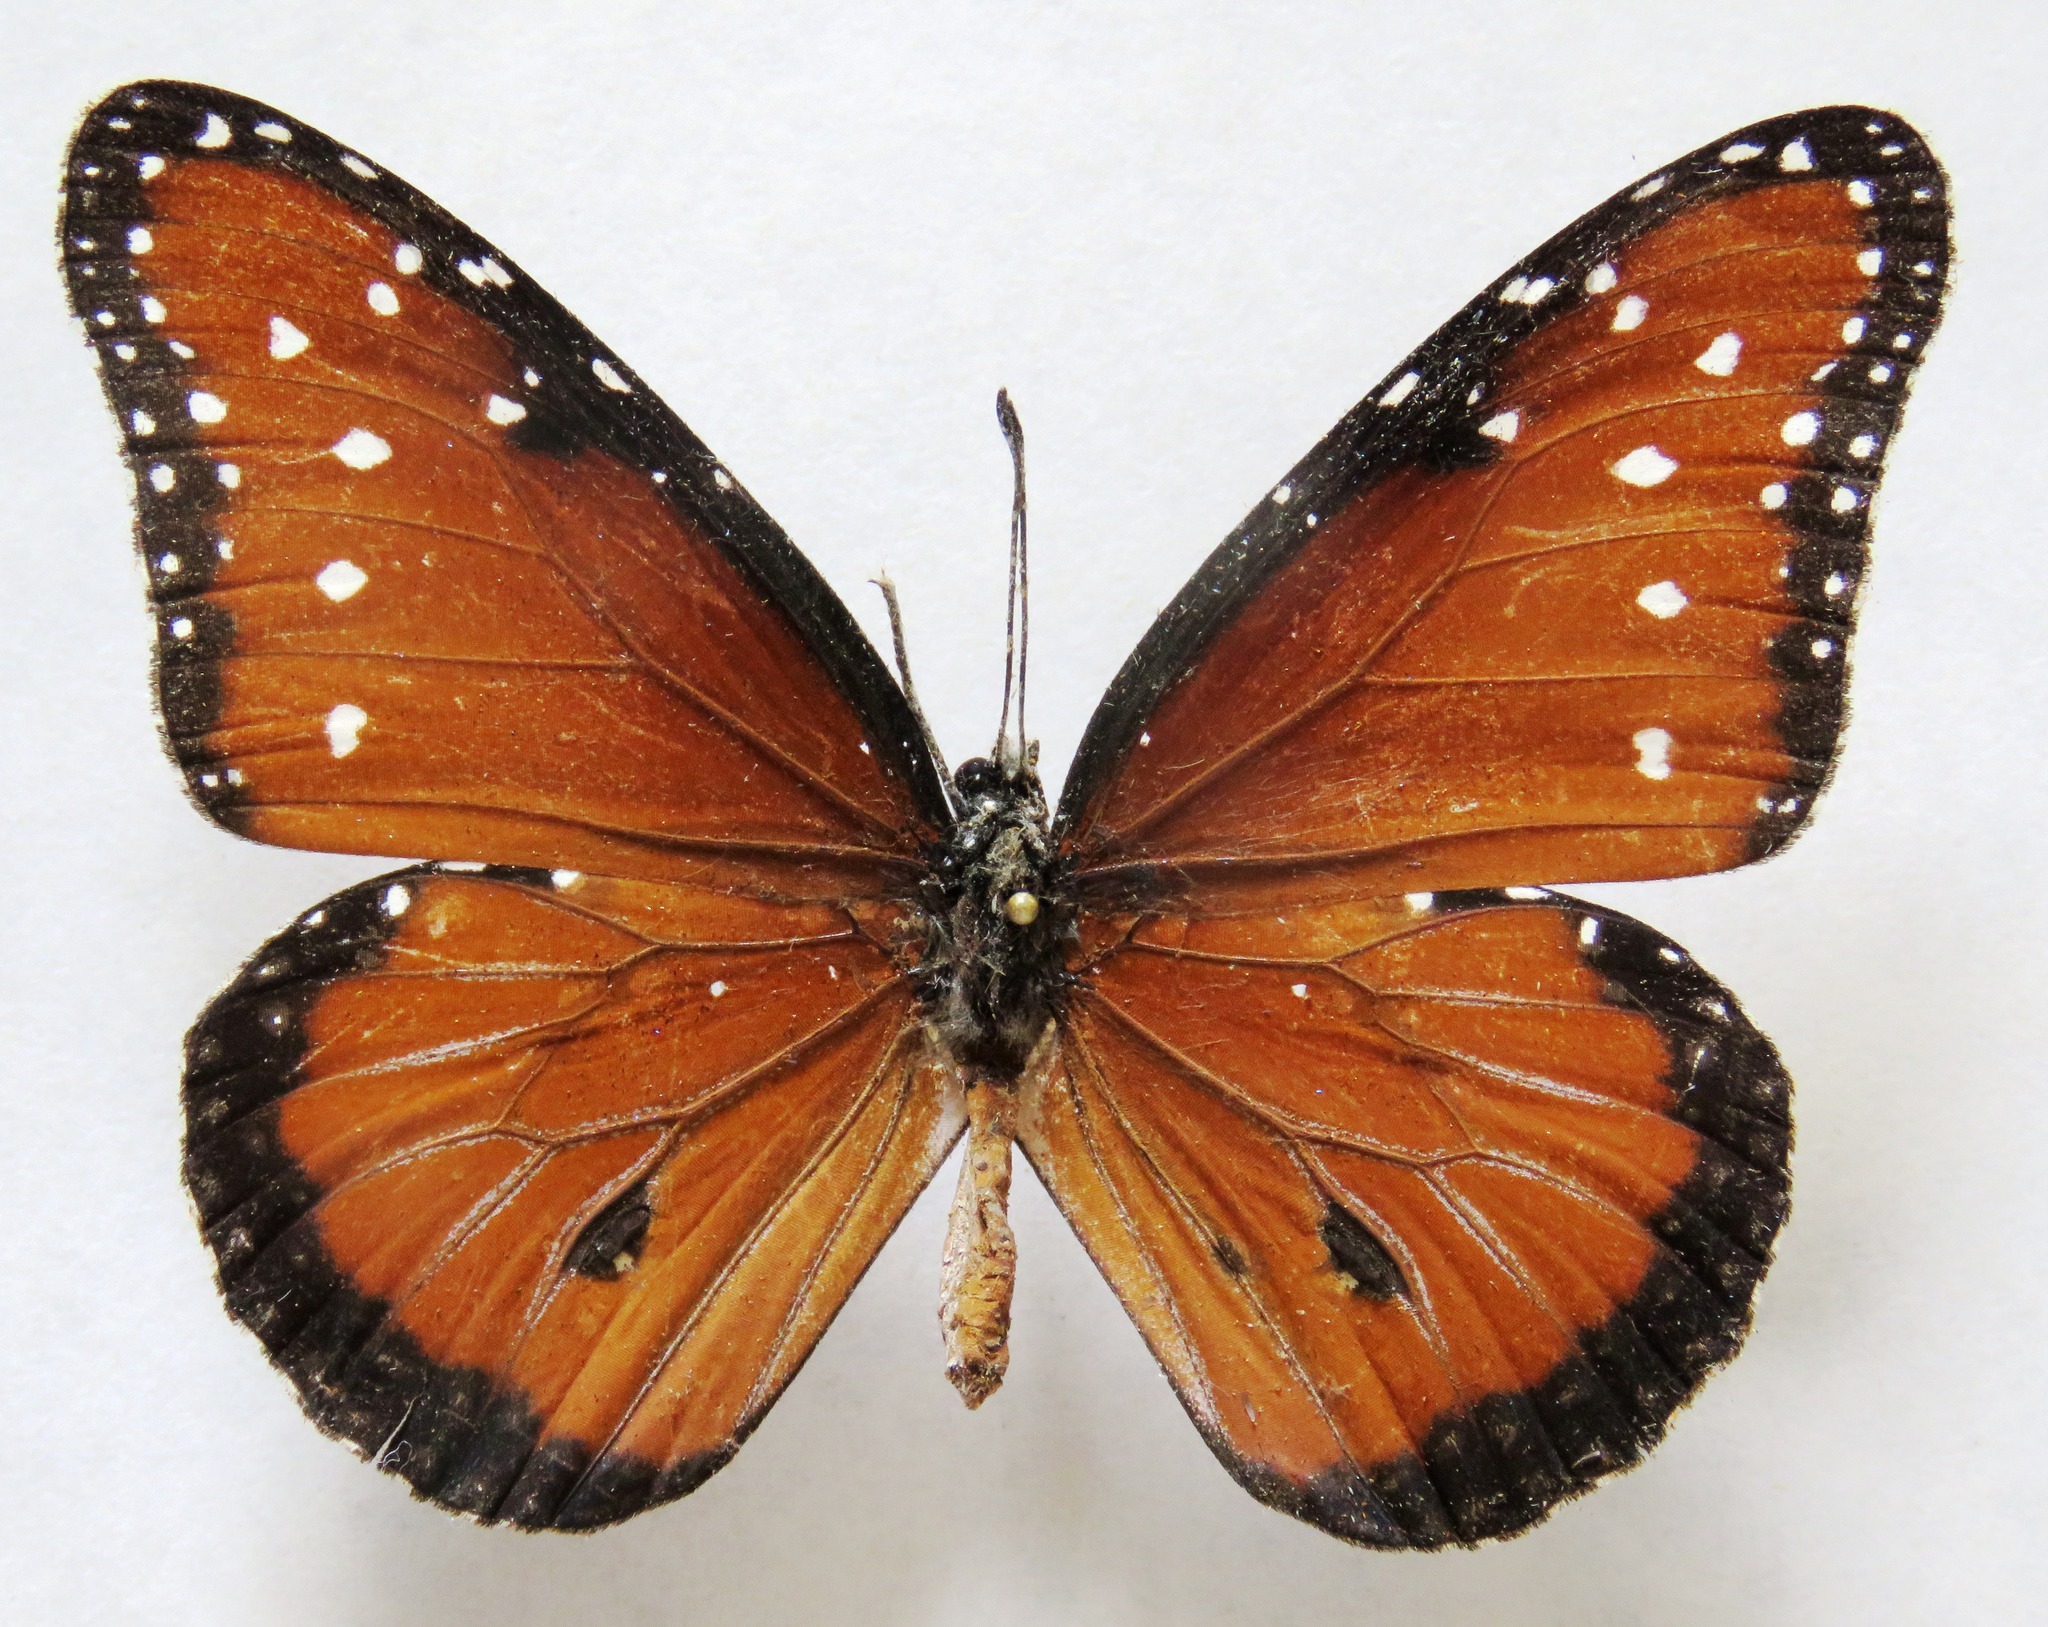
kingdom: Animalia
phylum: Arthropoda
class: Insecta
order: Lepidoptera
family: Nymphalidae
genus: Danaus
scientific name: Danaus gilippus
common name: Queen
